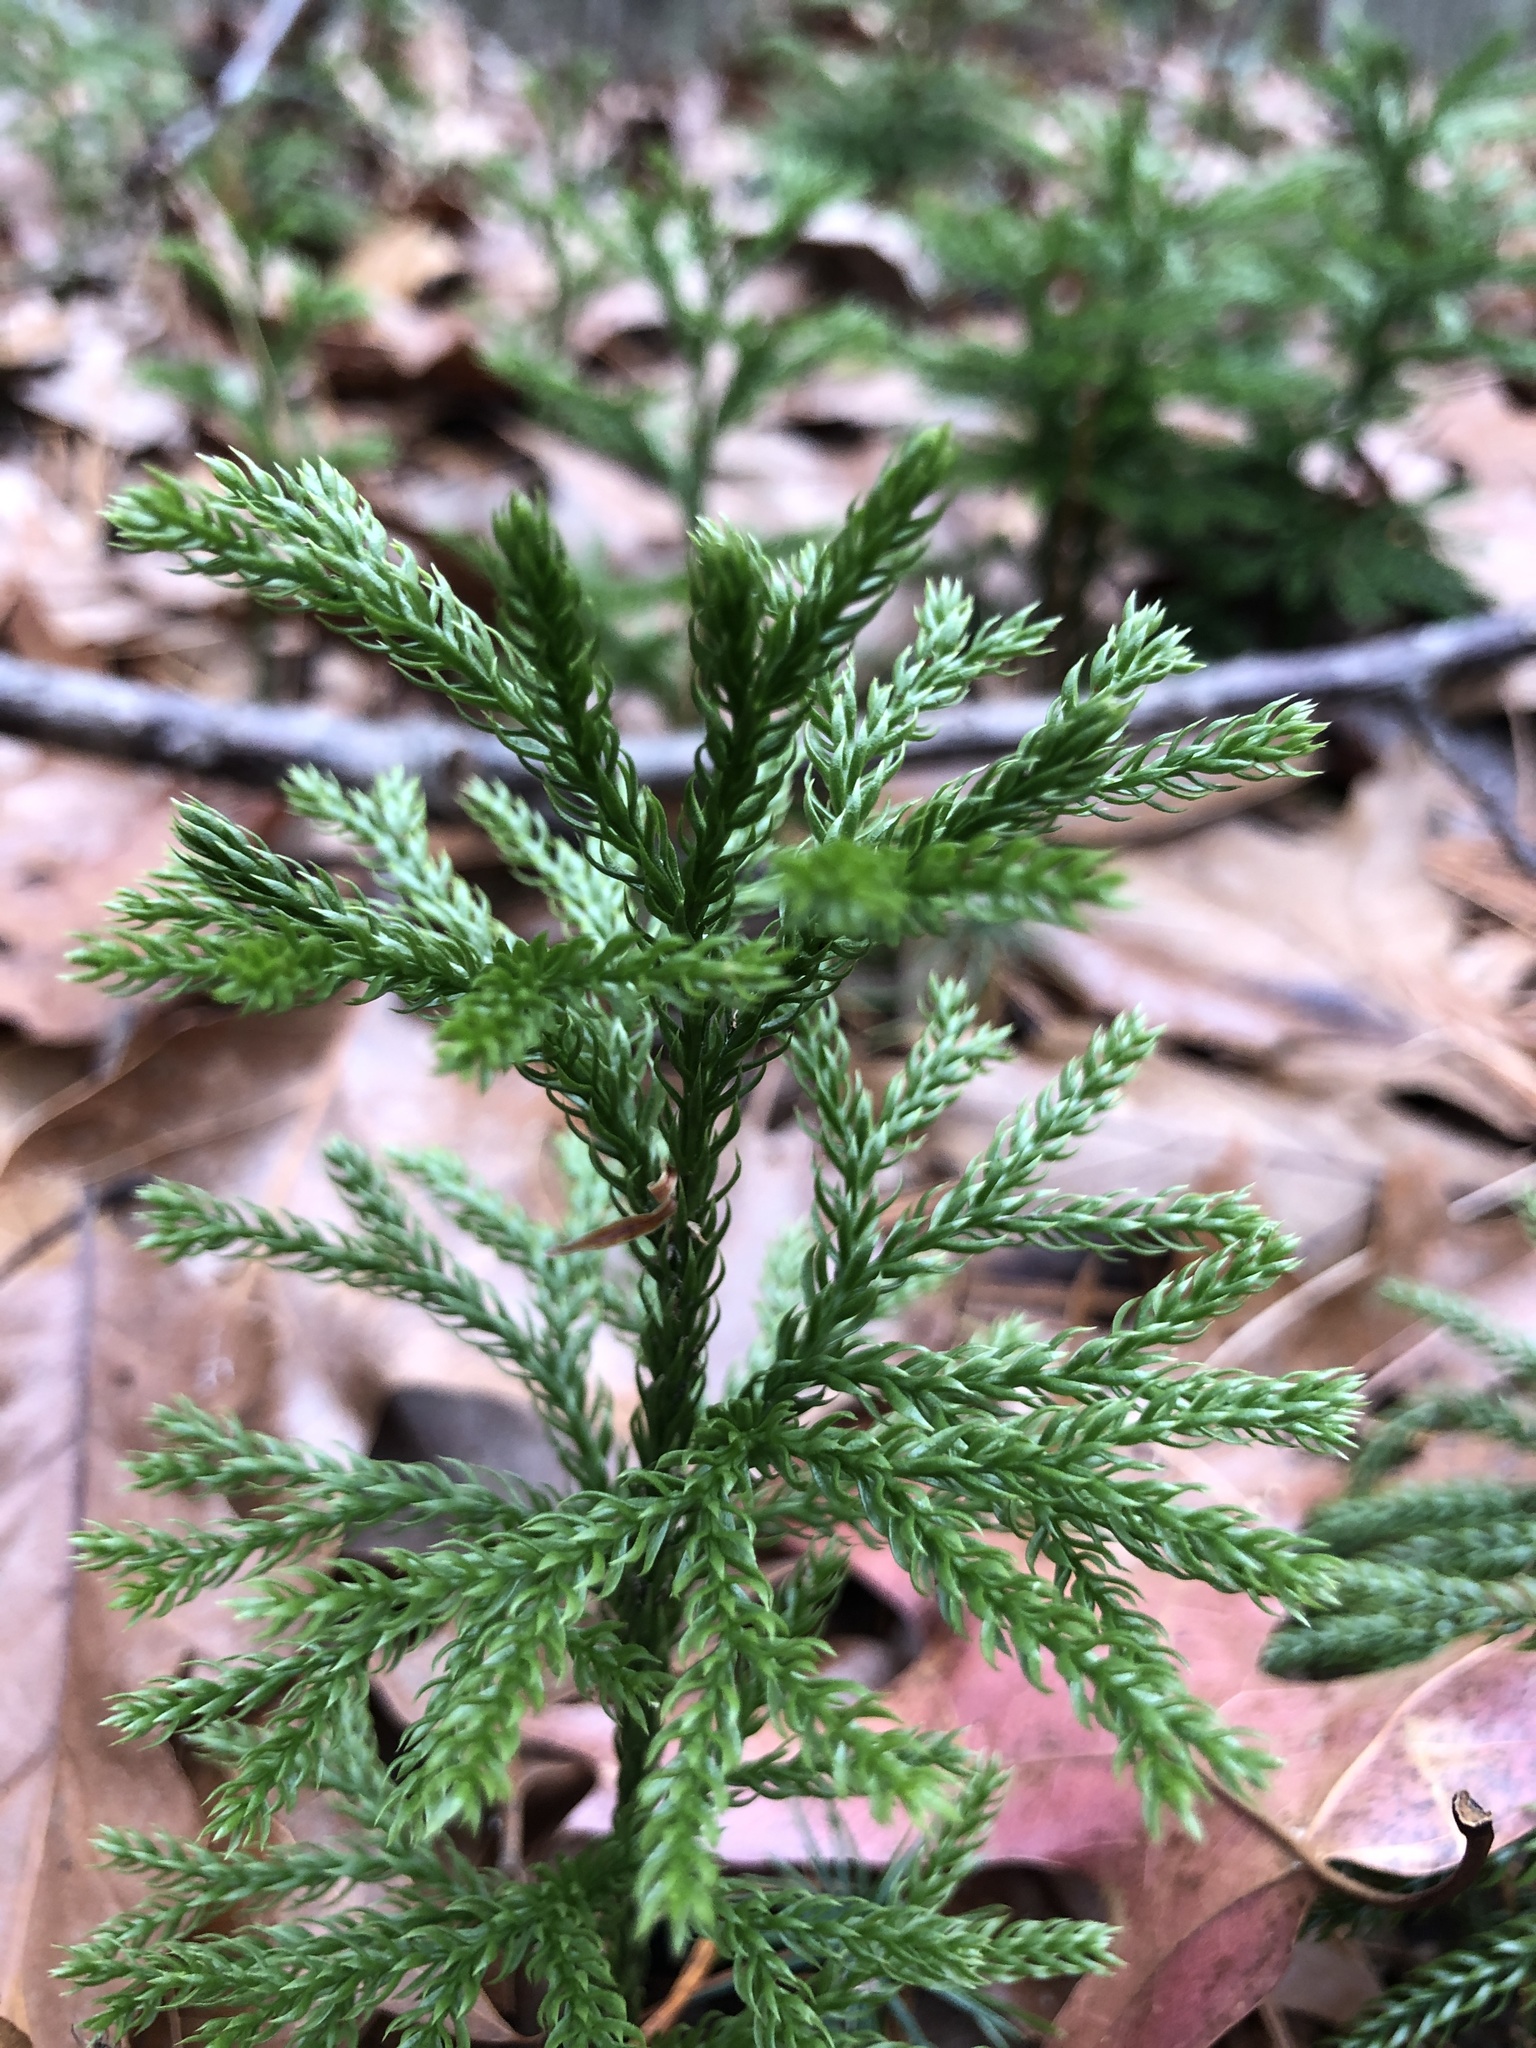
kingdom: Plantae
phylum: Tracheophyta
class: Lycopodiopsida
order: Lycopodiales
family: Lycopodiaceae
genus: Dendrolycopodium
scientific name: Dendrolycopodium hickeyi
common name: Hickey's clubmoss
